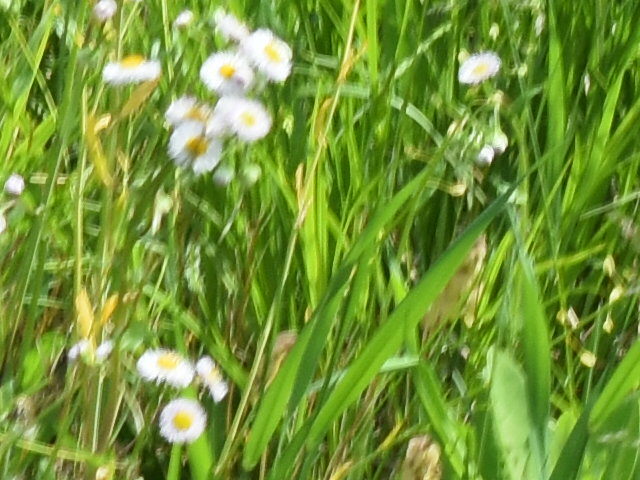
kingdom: Plantae
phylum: Tracheophyta
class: Magnoliopsida
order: Asterales
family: Asteraceae
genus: Erigeron
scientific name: Erigeron
